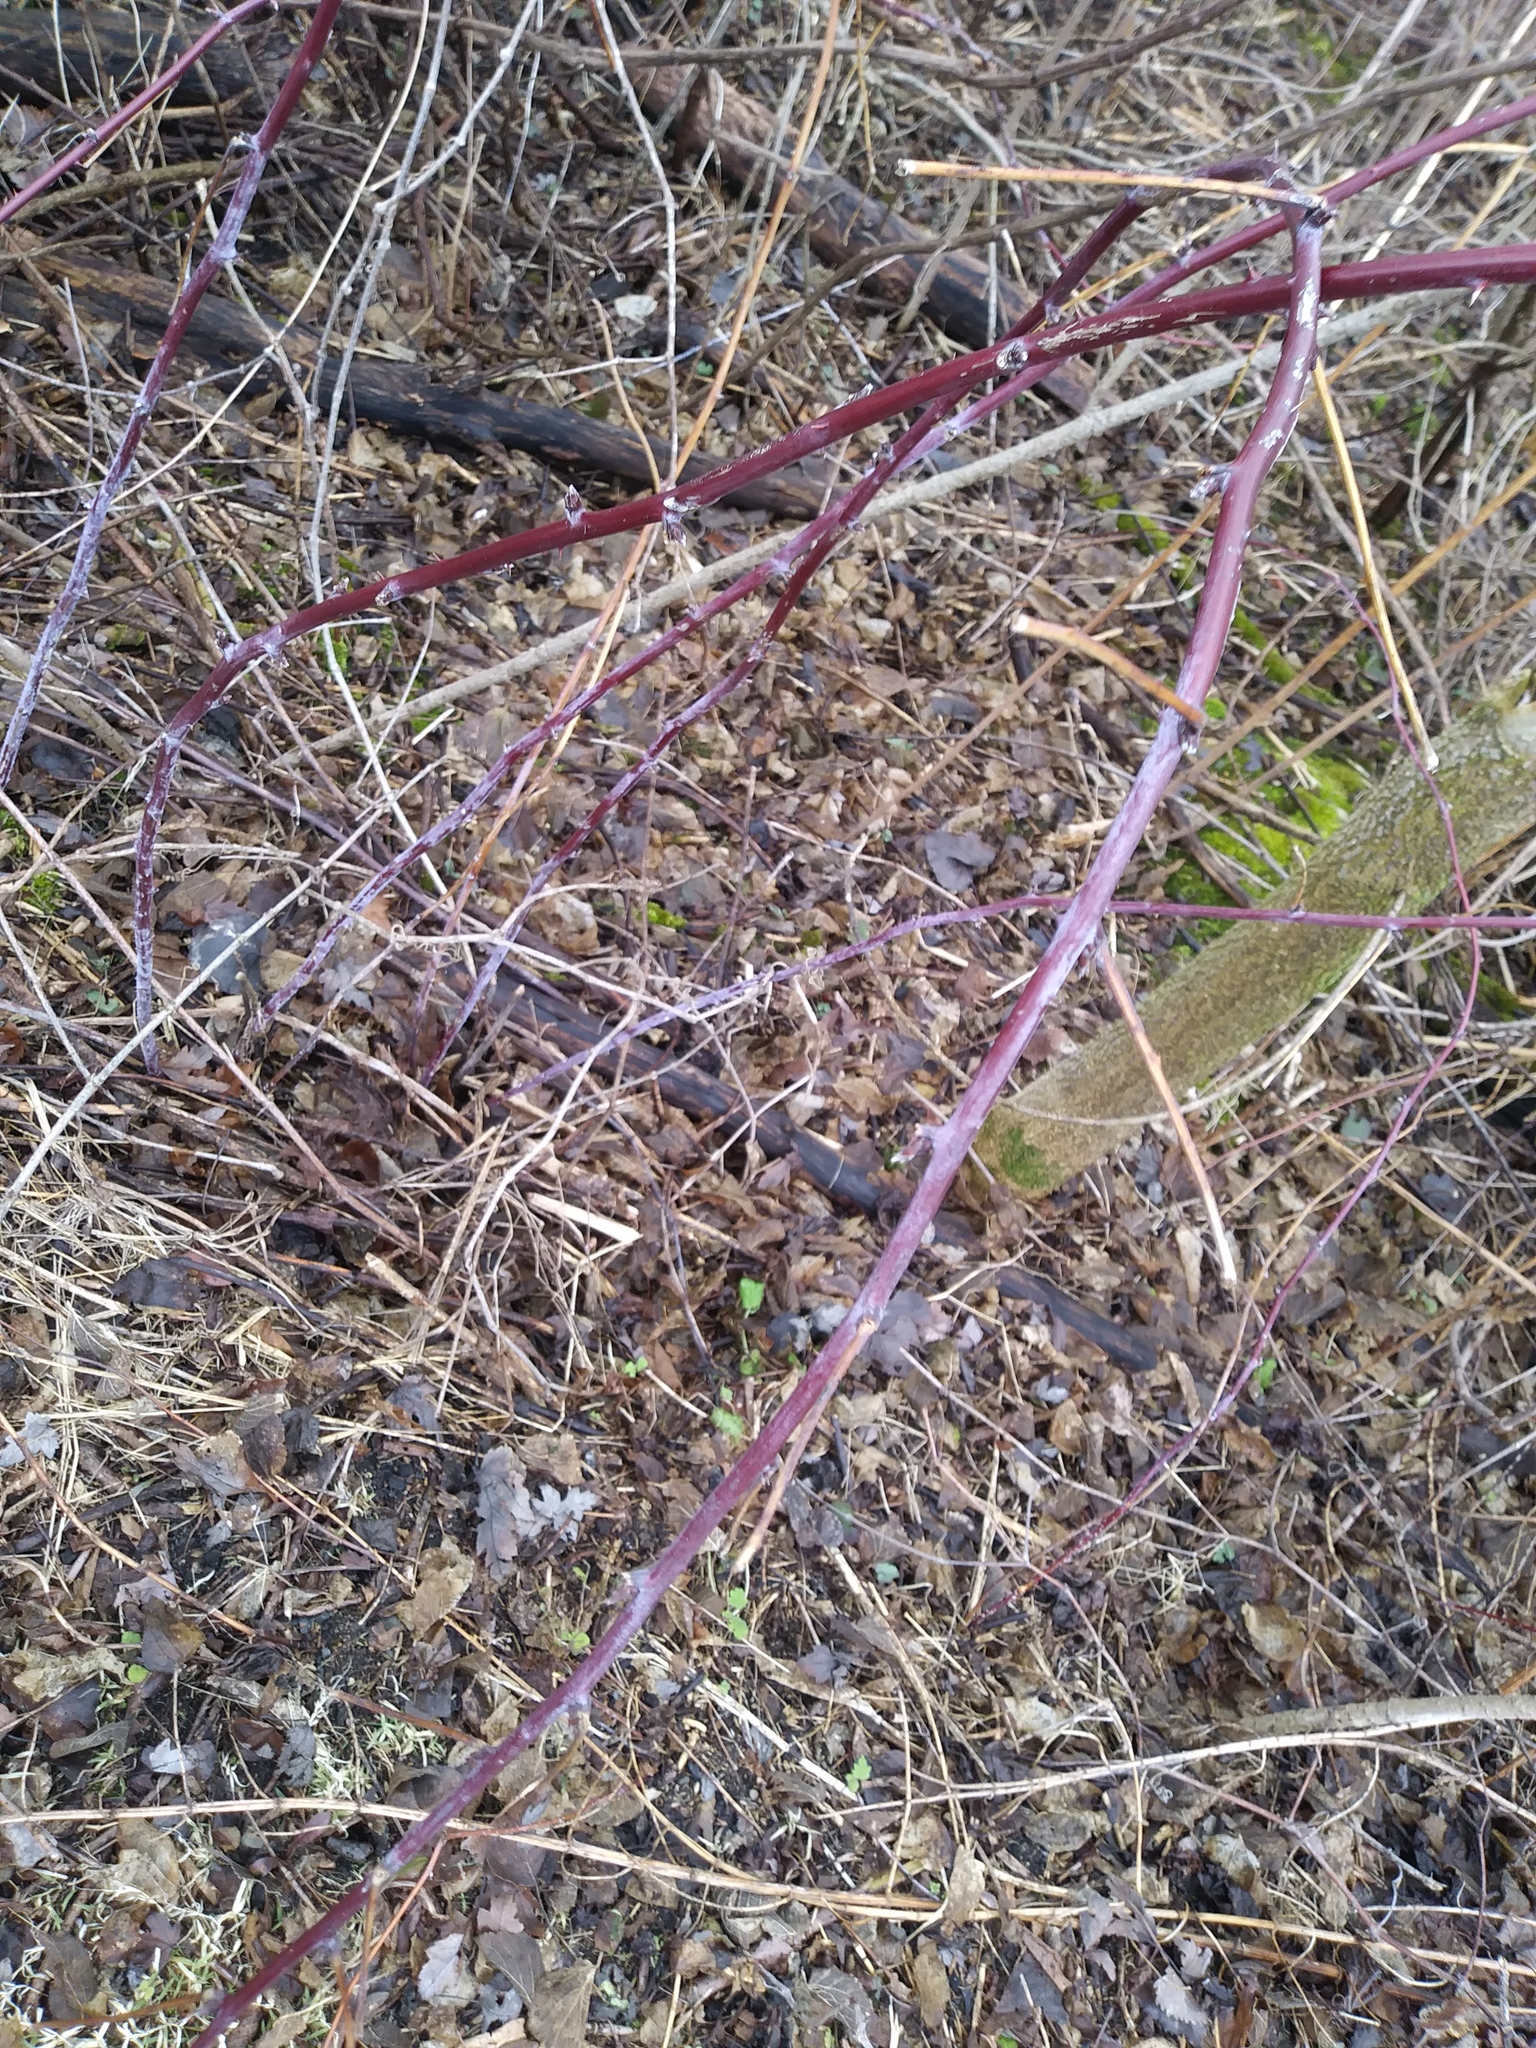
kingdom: Plantae
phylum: Tracheophyta
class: Magnoliopsida
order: Rosales
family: Rosaceae
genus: Rubus
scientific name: Rubus occidentalis
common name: Black raspberry
